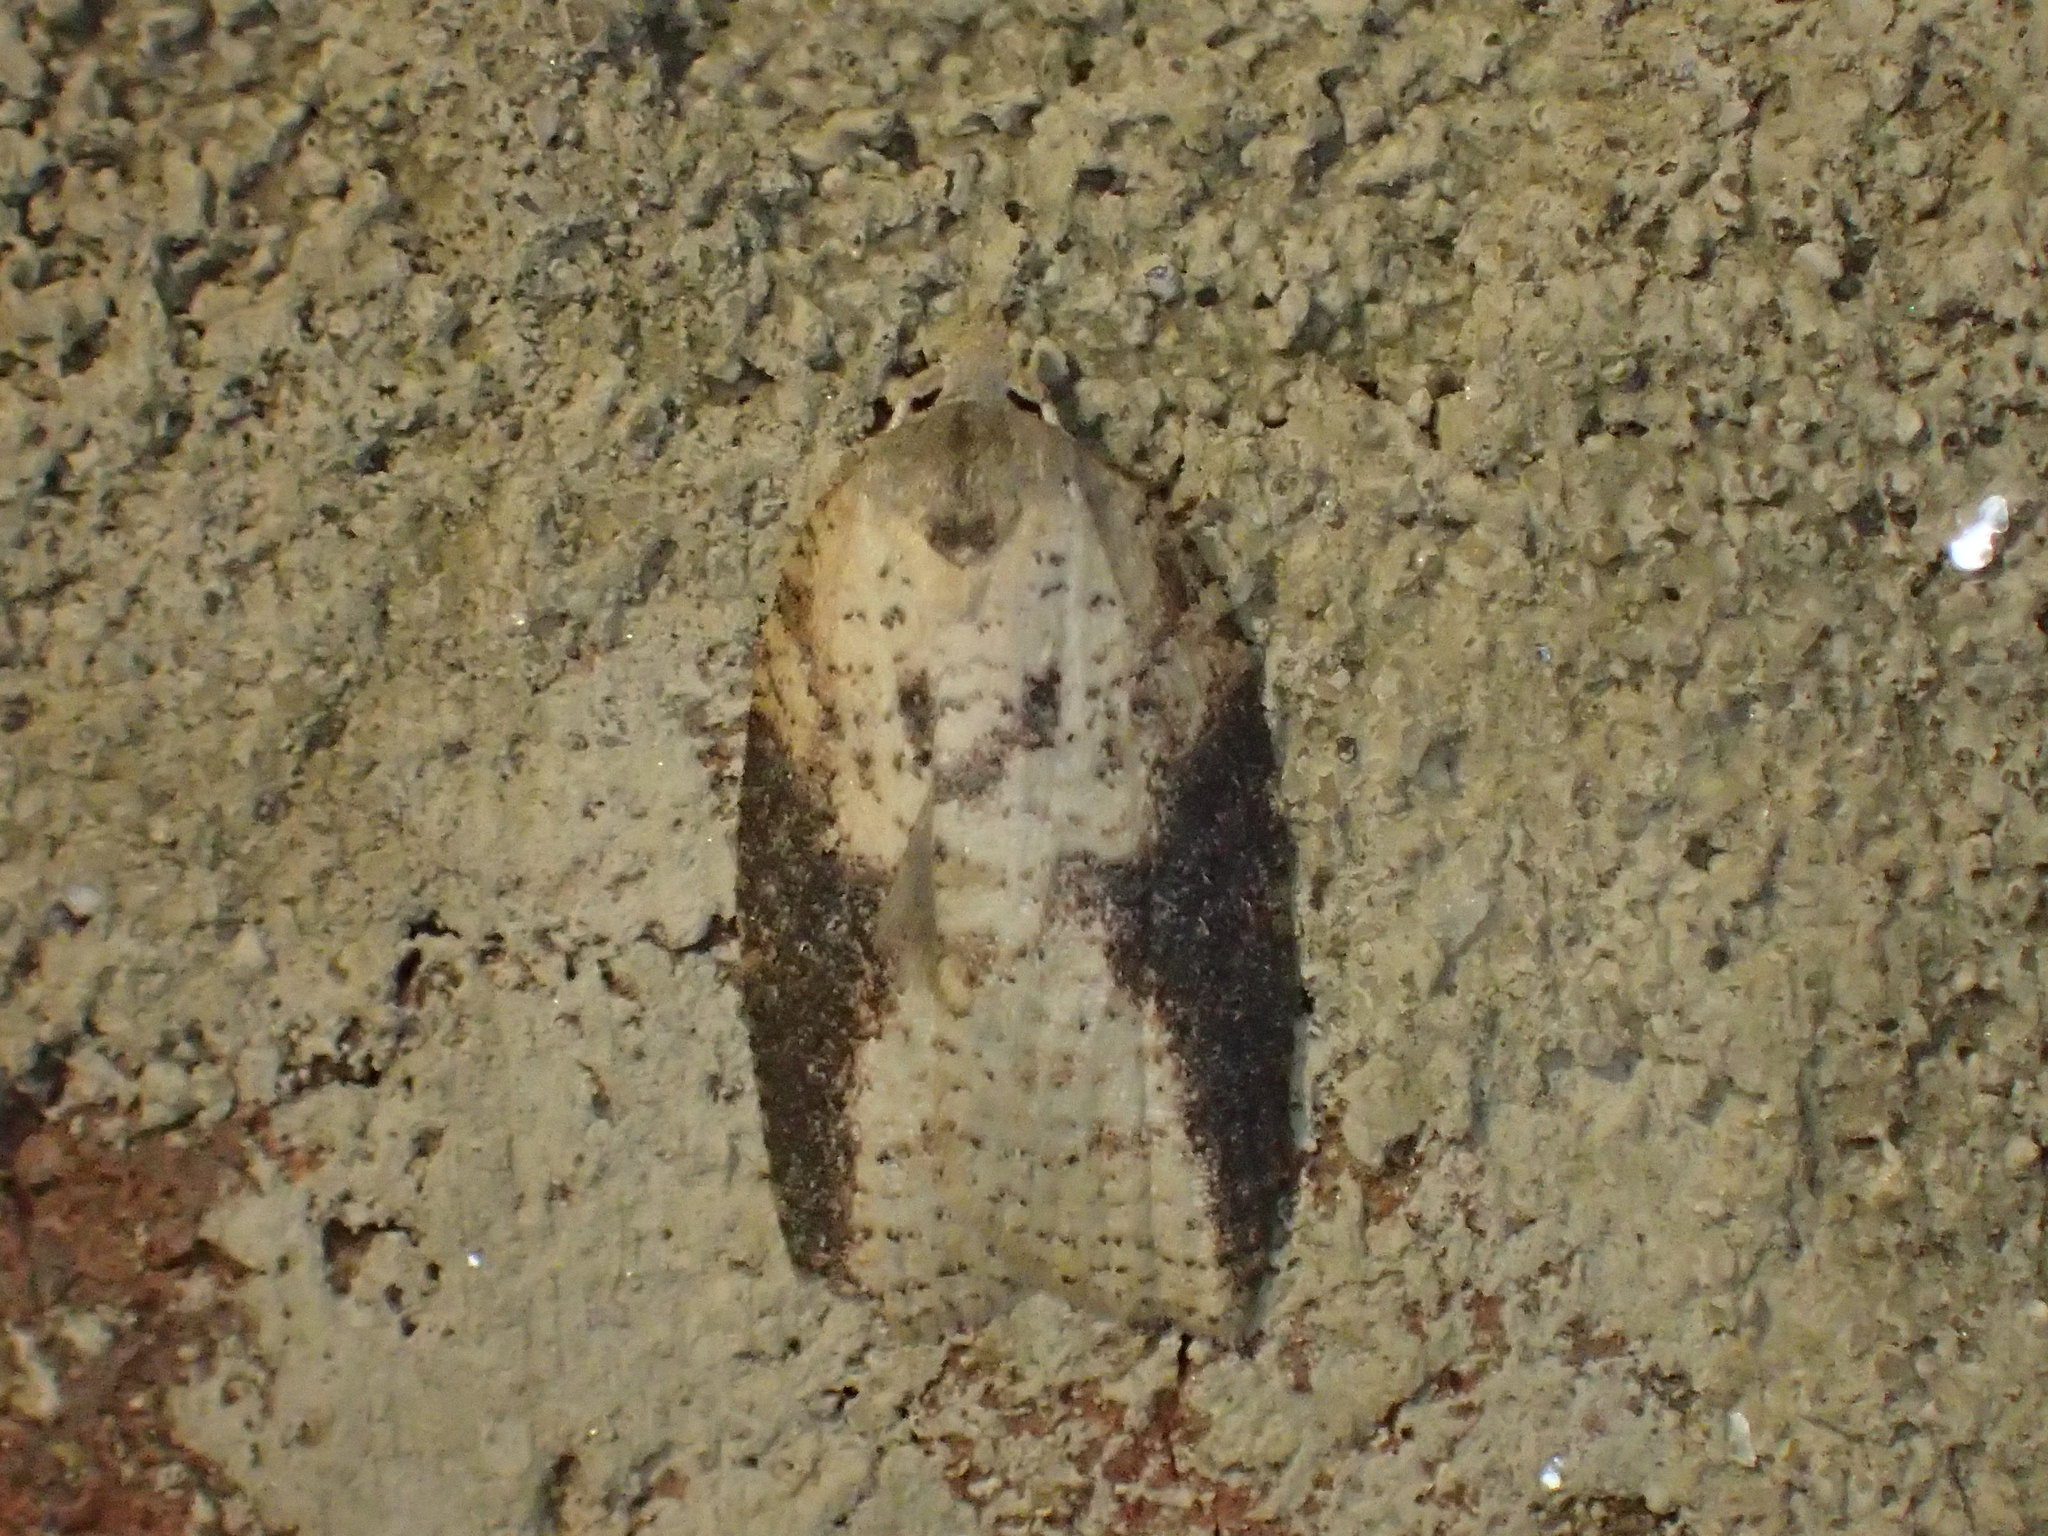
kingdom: Animalia
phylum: Arthropoda
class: Insecta
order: Lepidoptera
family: Tortricidae
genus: Amorbia
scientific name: Amorbia humerosana
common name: White-lined leafroller moth
